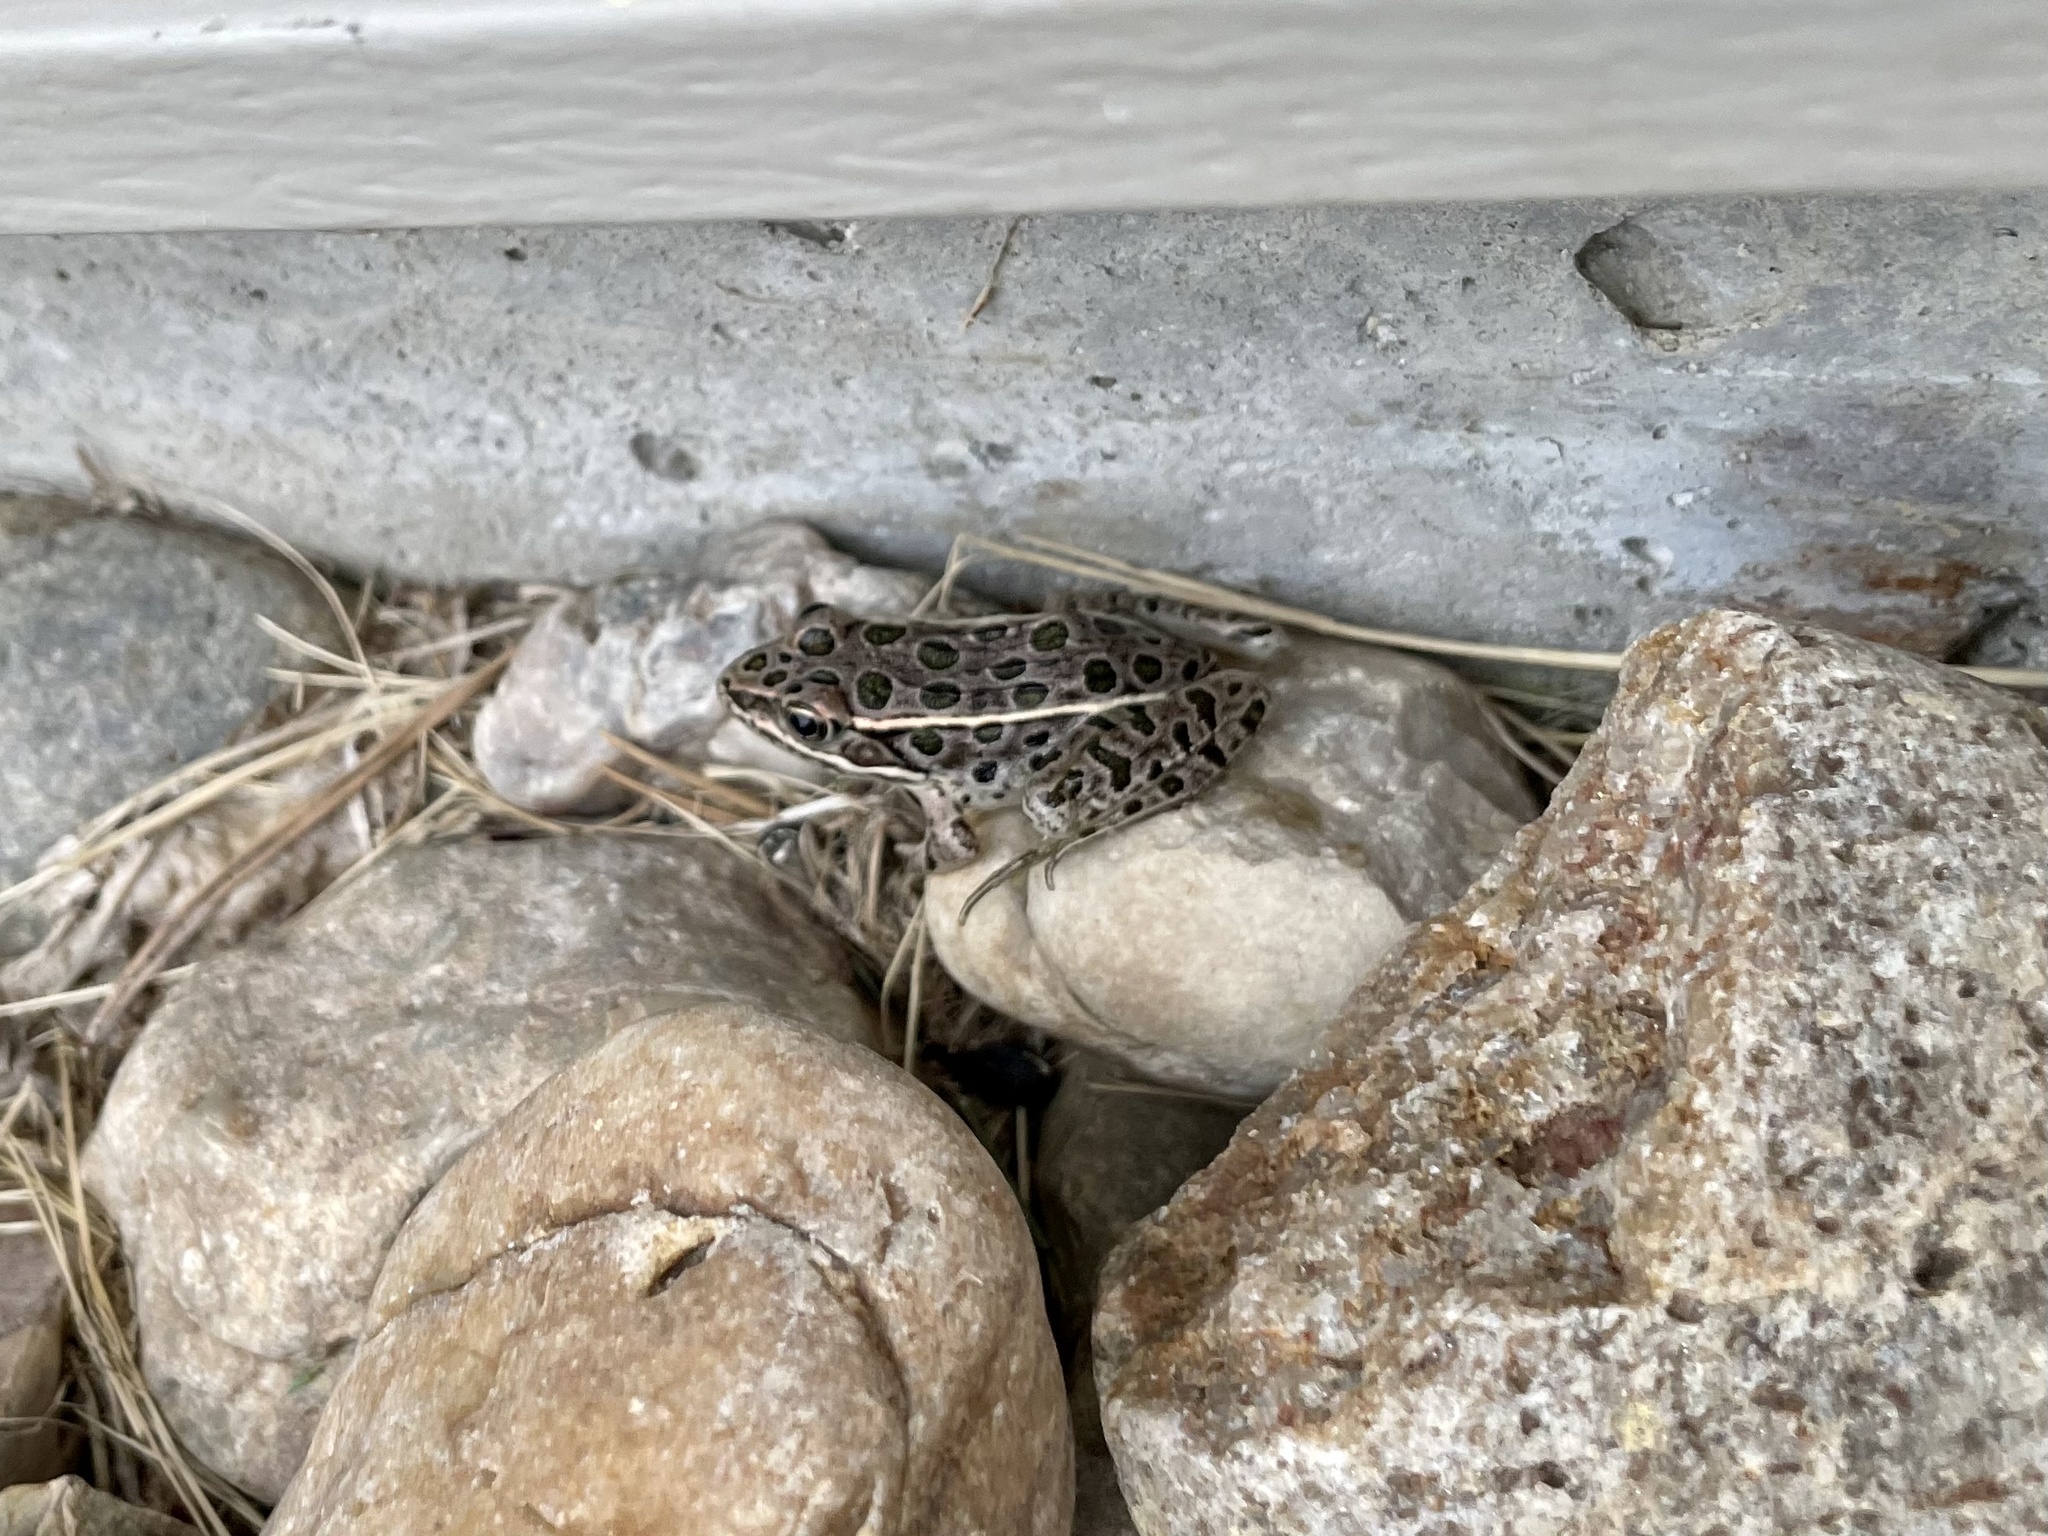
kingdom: Animalia
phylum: Chordata
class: Amphibia
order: Anura
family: Ranidae
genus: Lithobates
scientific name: Lithobates pipiens
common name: Northern leopard frog
